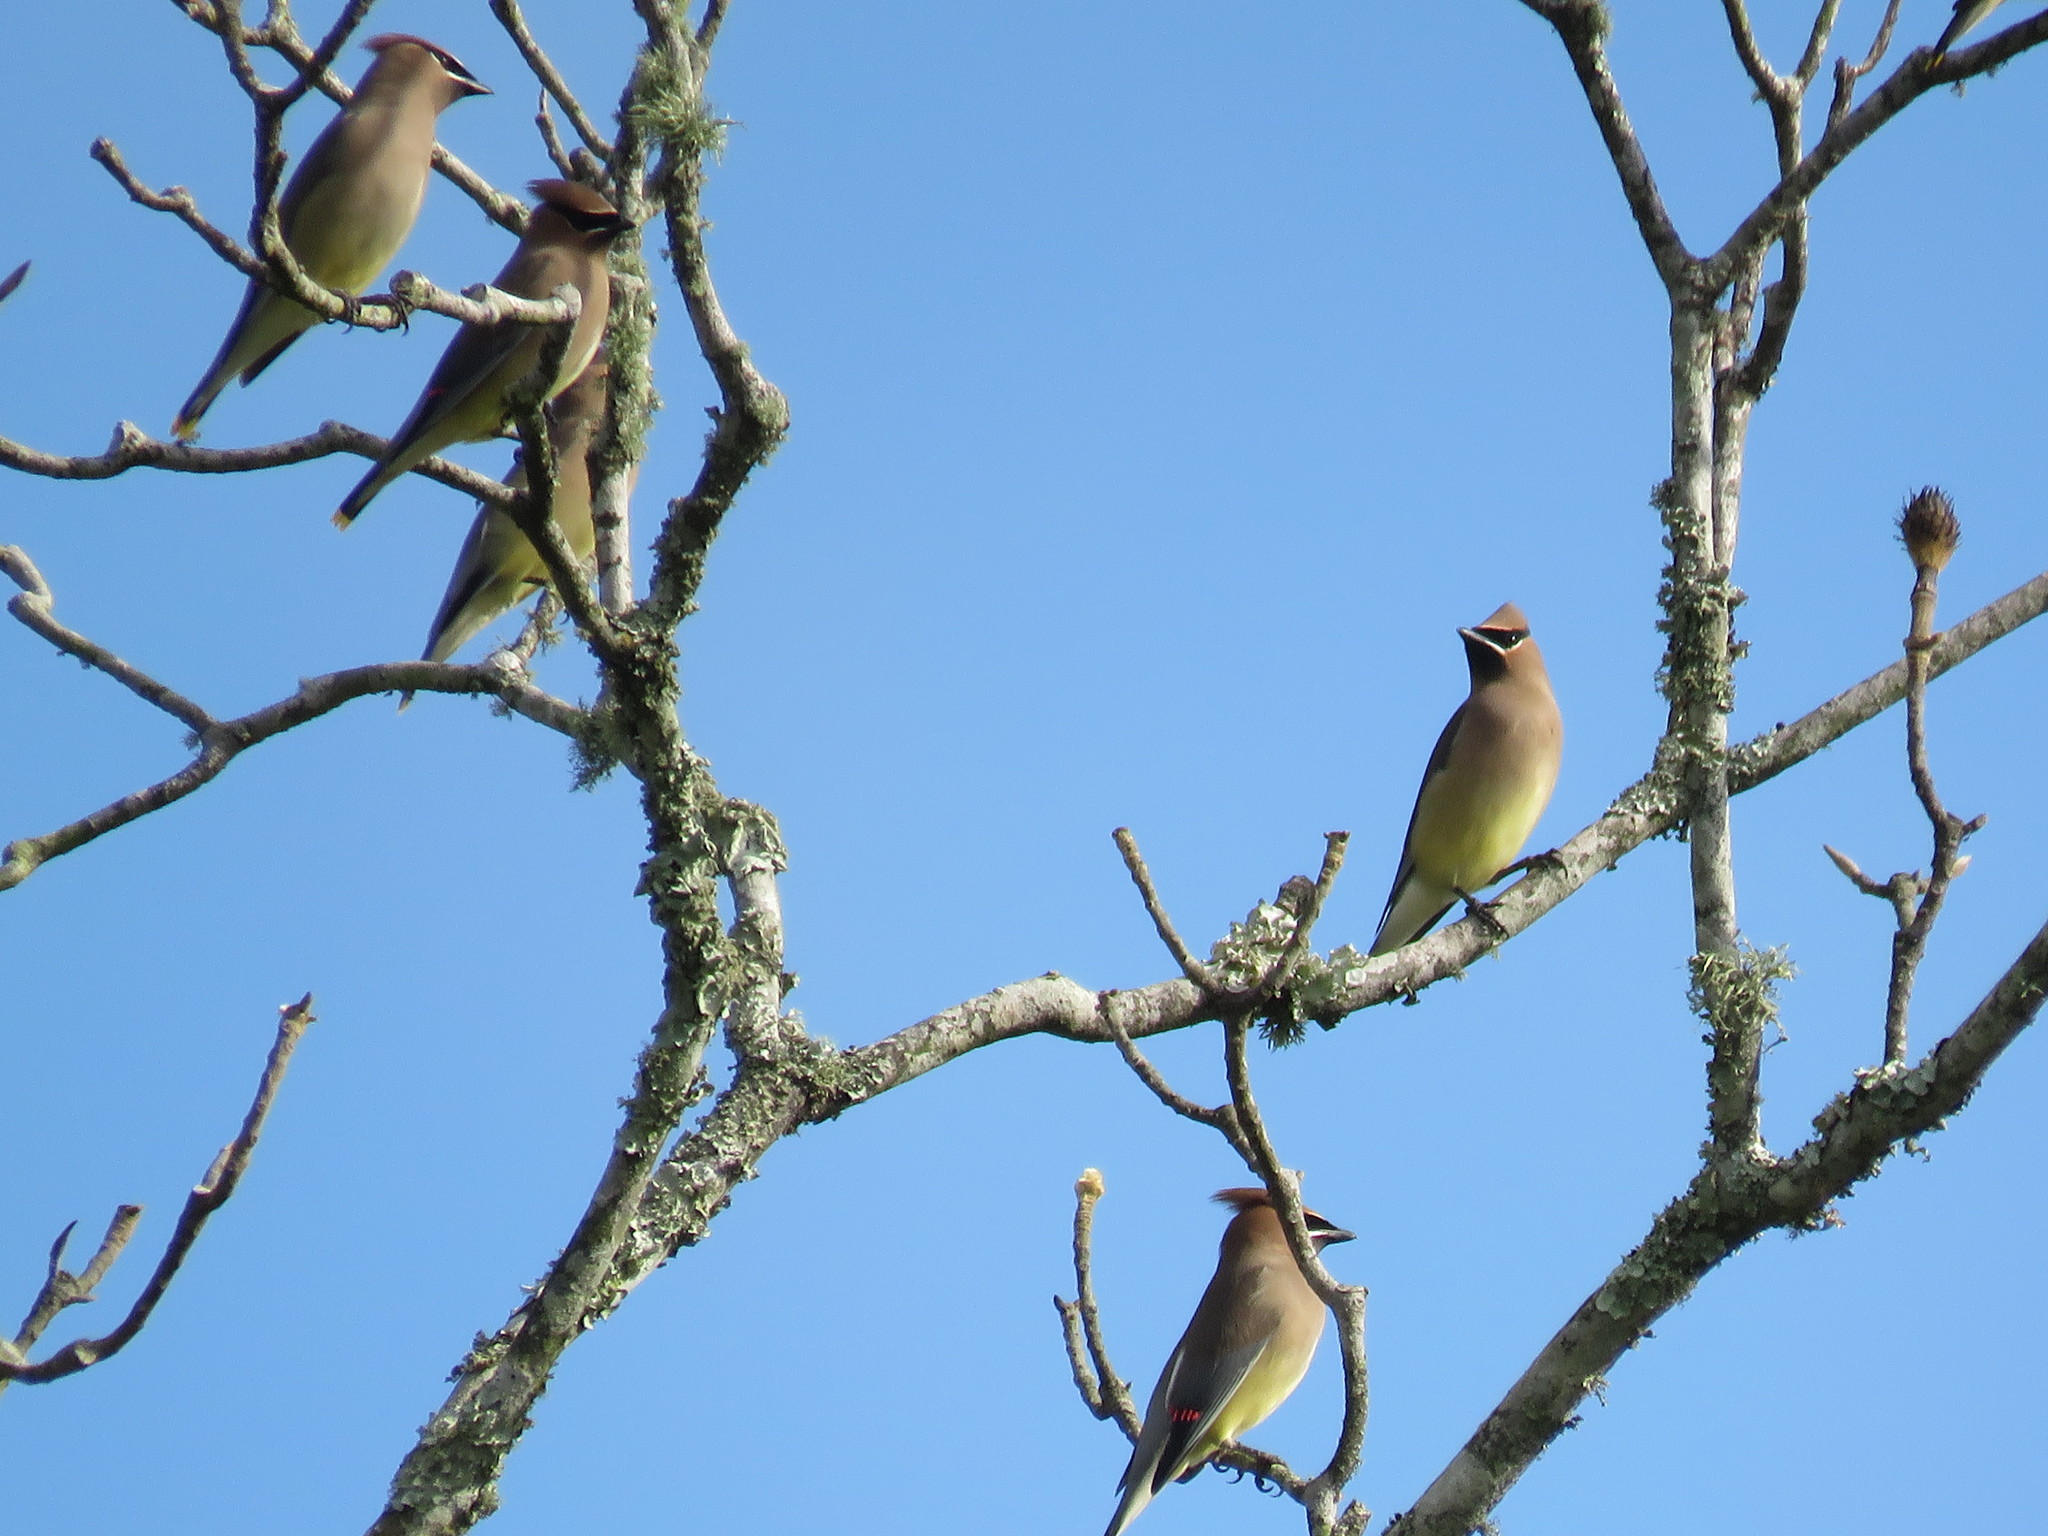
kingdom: Animalia
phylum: Chordata
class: Aves
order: Passeriformes
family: Bombycillidae
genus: Bombycilla
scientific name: Bombycilla cedrorum
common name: Cedar waxwing
